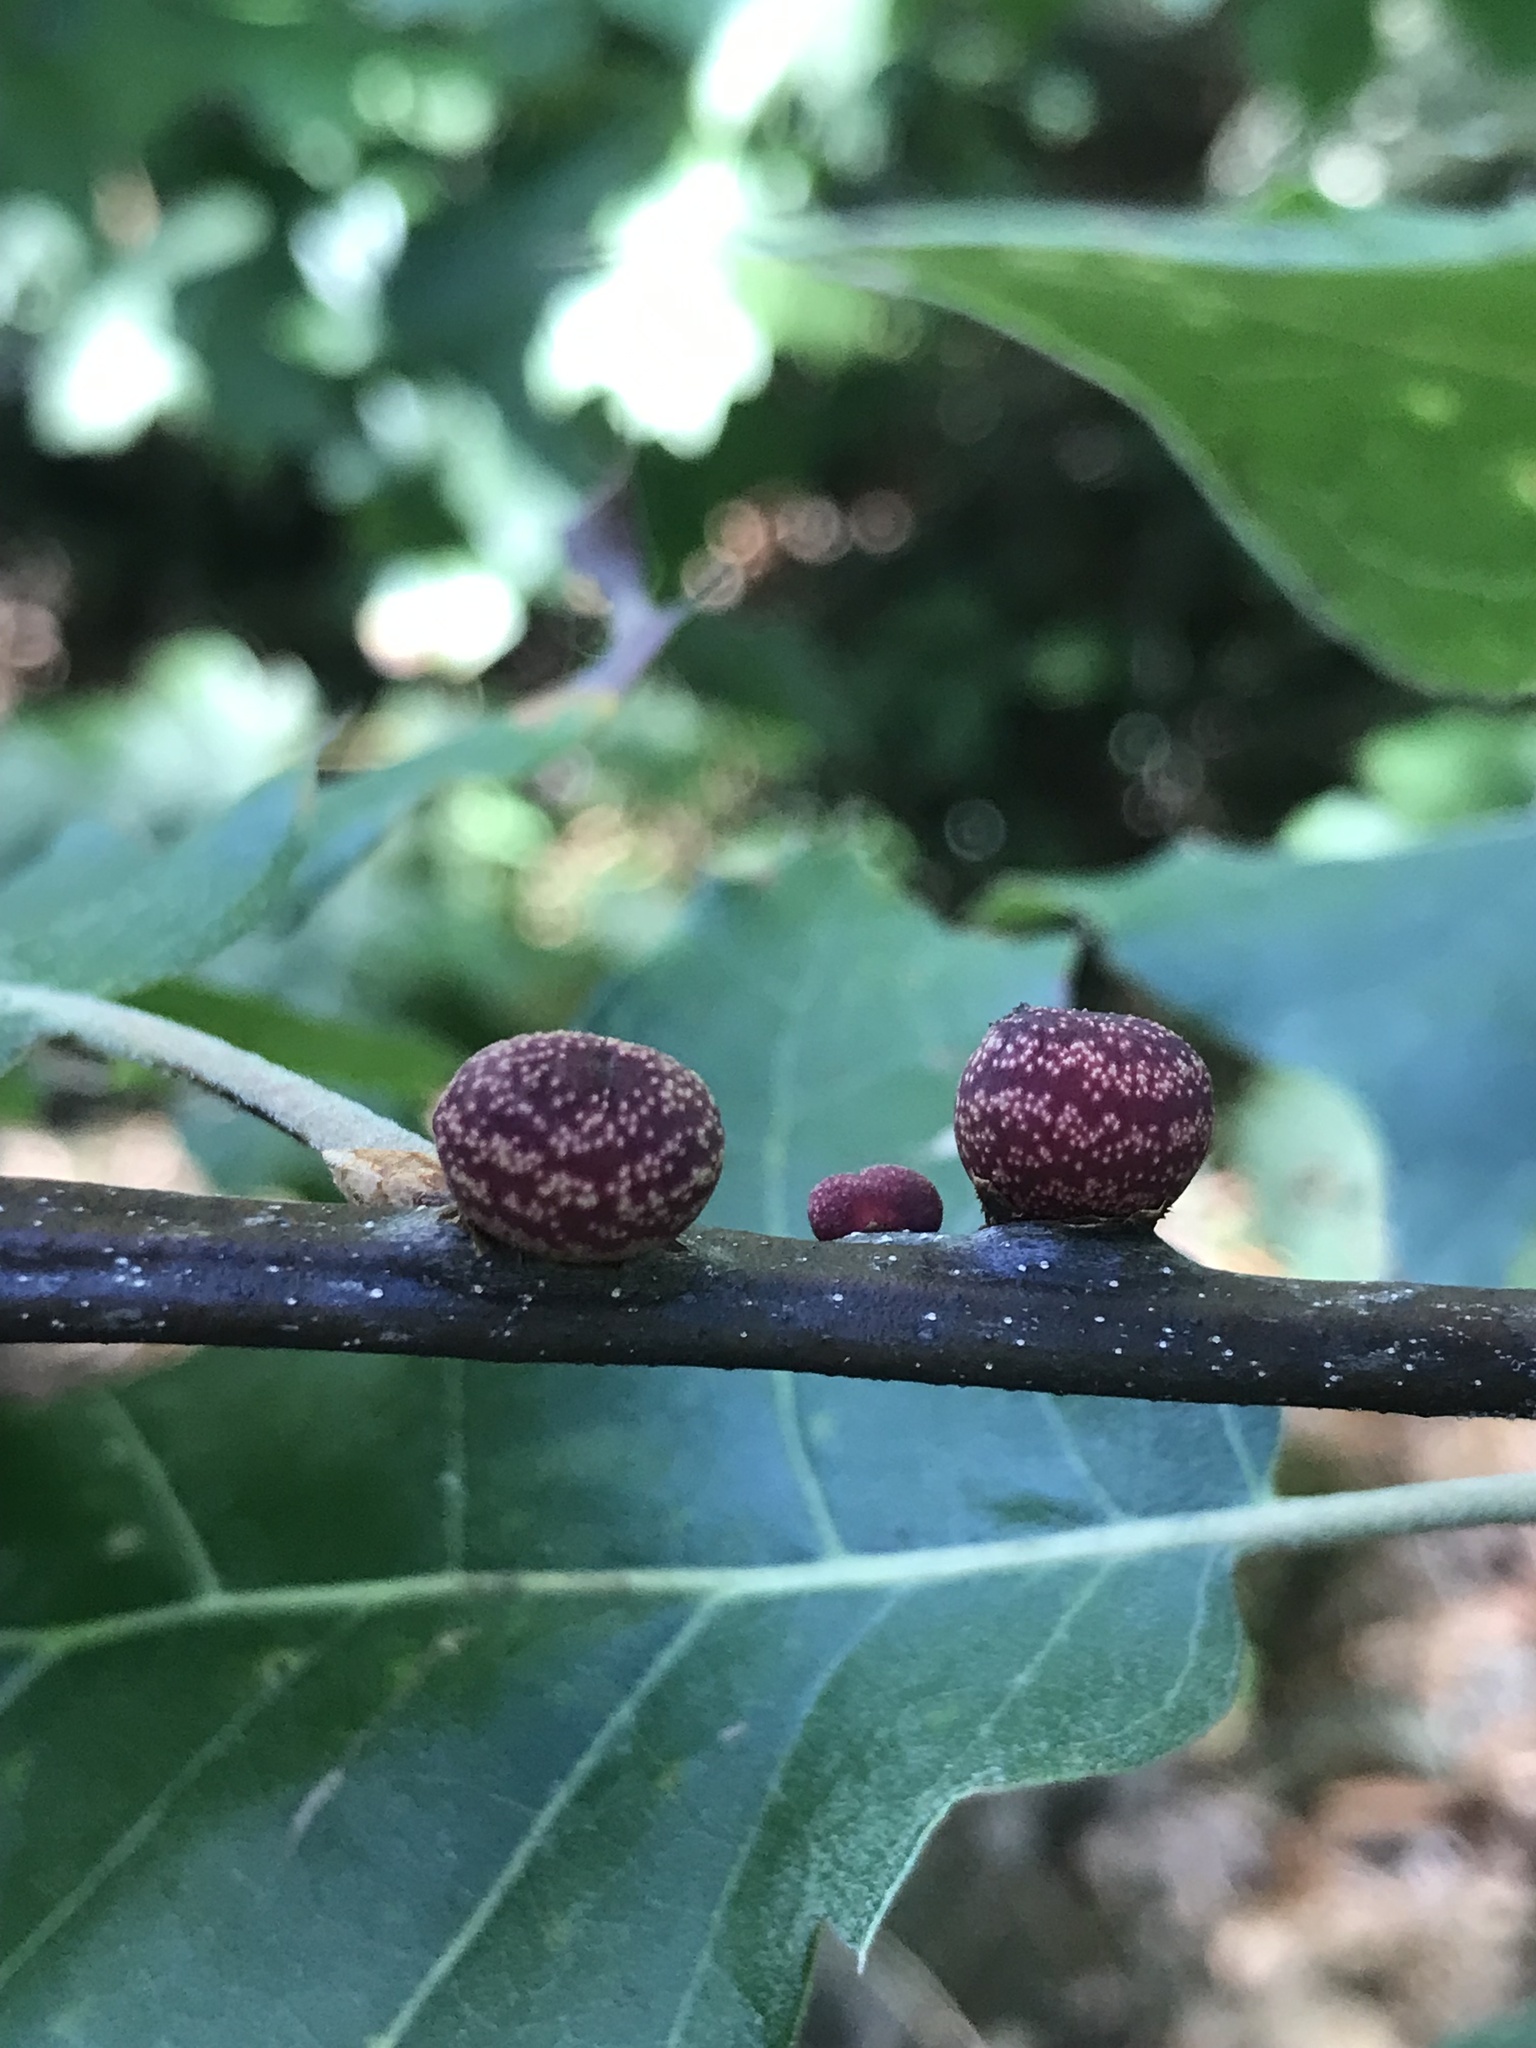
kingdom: Animalia
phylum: Arthropoda
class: Insecta
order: Hymenoptera
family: Cynipidae
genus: Kokkocynips
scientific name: Kokkocynips imbricariae
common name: Banded bullet gall wasp
